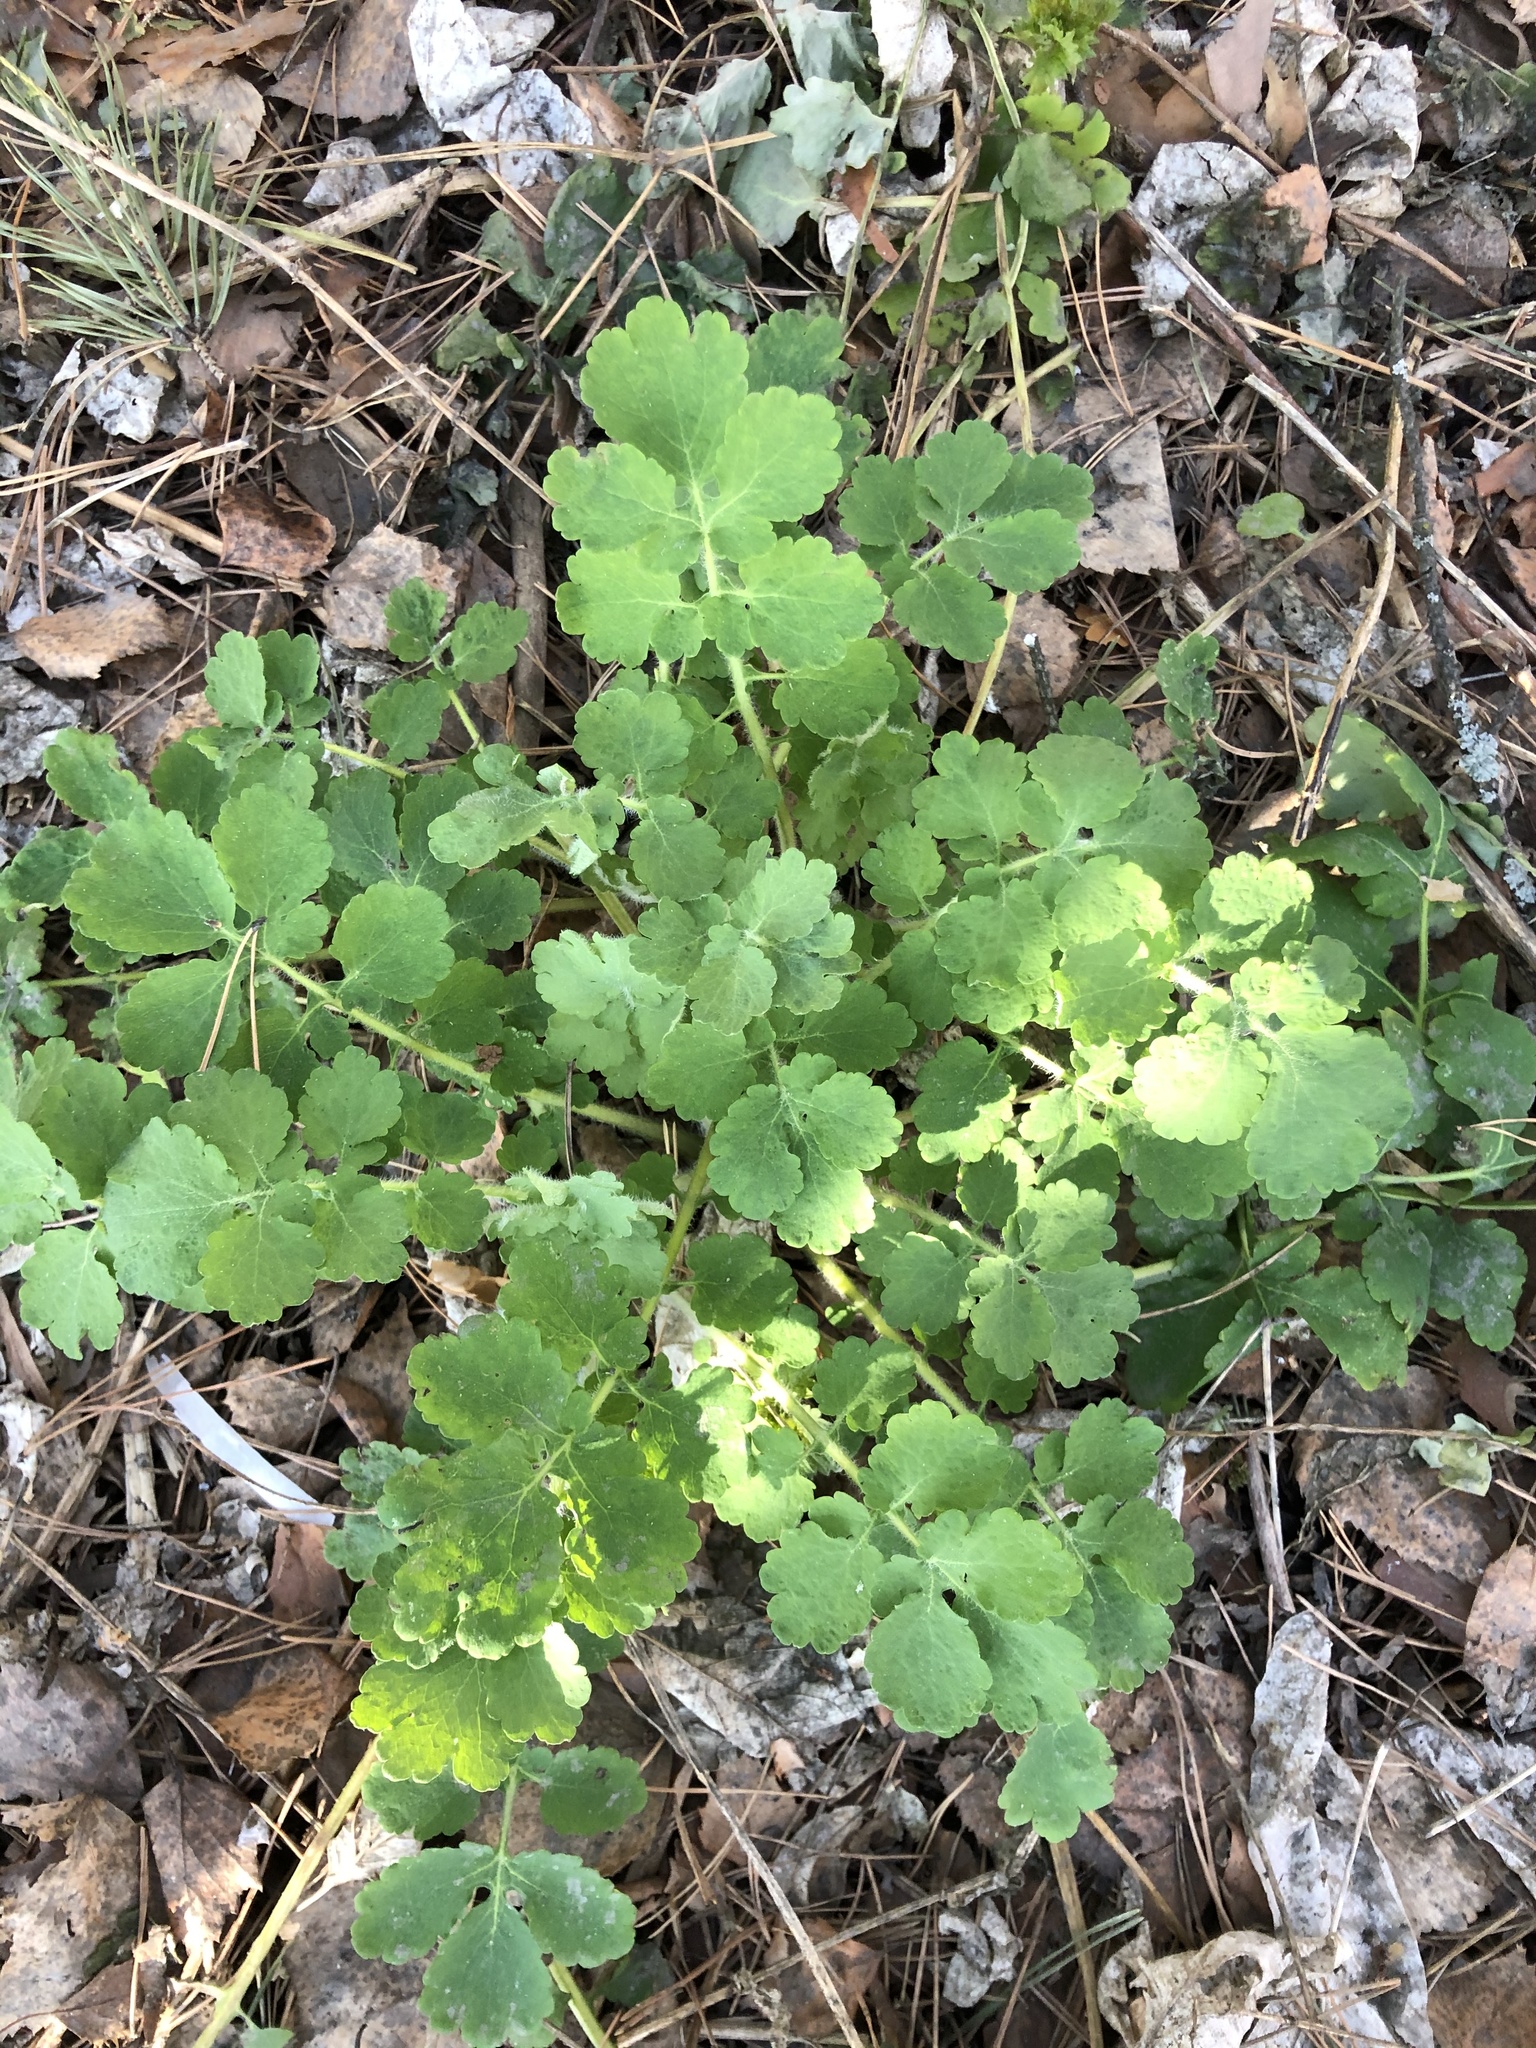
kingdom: Plantae
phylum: Tracheophyta
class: Magnoliopsida
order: Ranunculales
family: Papaveraceae
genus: Chelidonium
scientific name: Chelidonium majus
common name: Greater celandine
